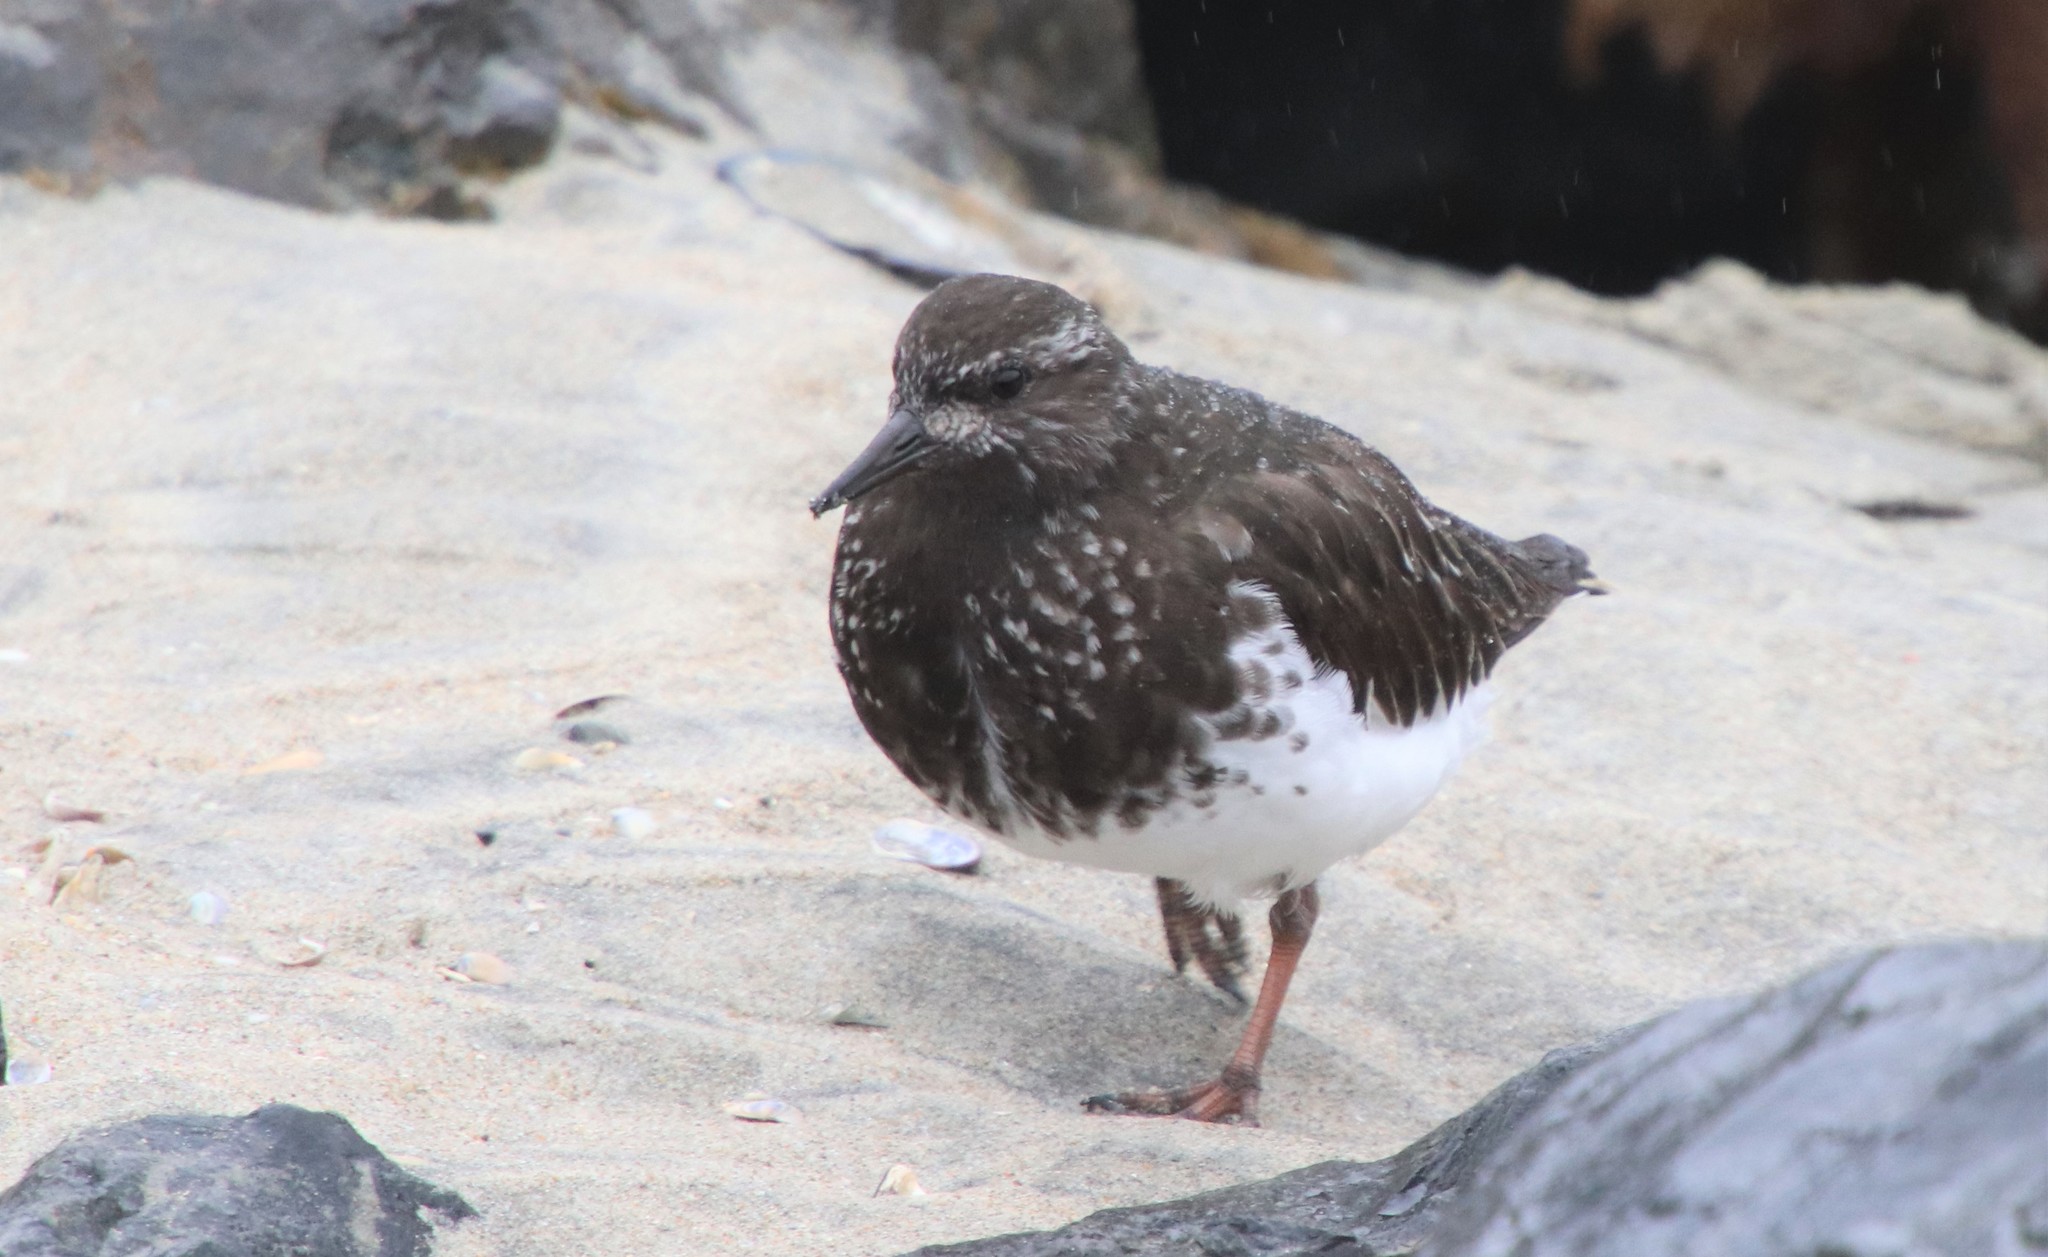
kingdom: Animalia
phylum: Chordata
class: Aves
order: Charadriiformes
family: Scolopacidae
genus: Arenaria
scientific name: Arenaria melanocephala
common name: Black turnstone
